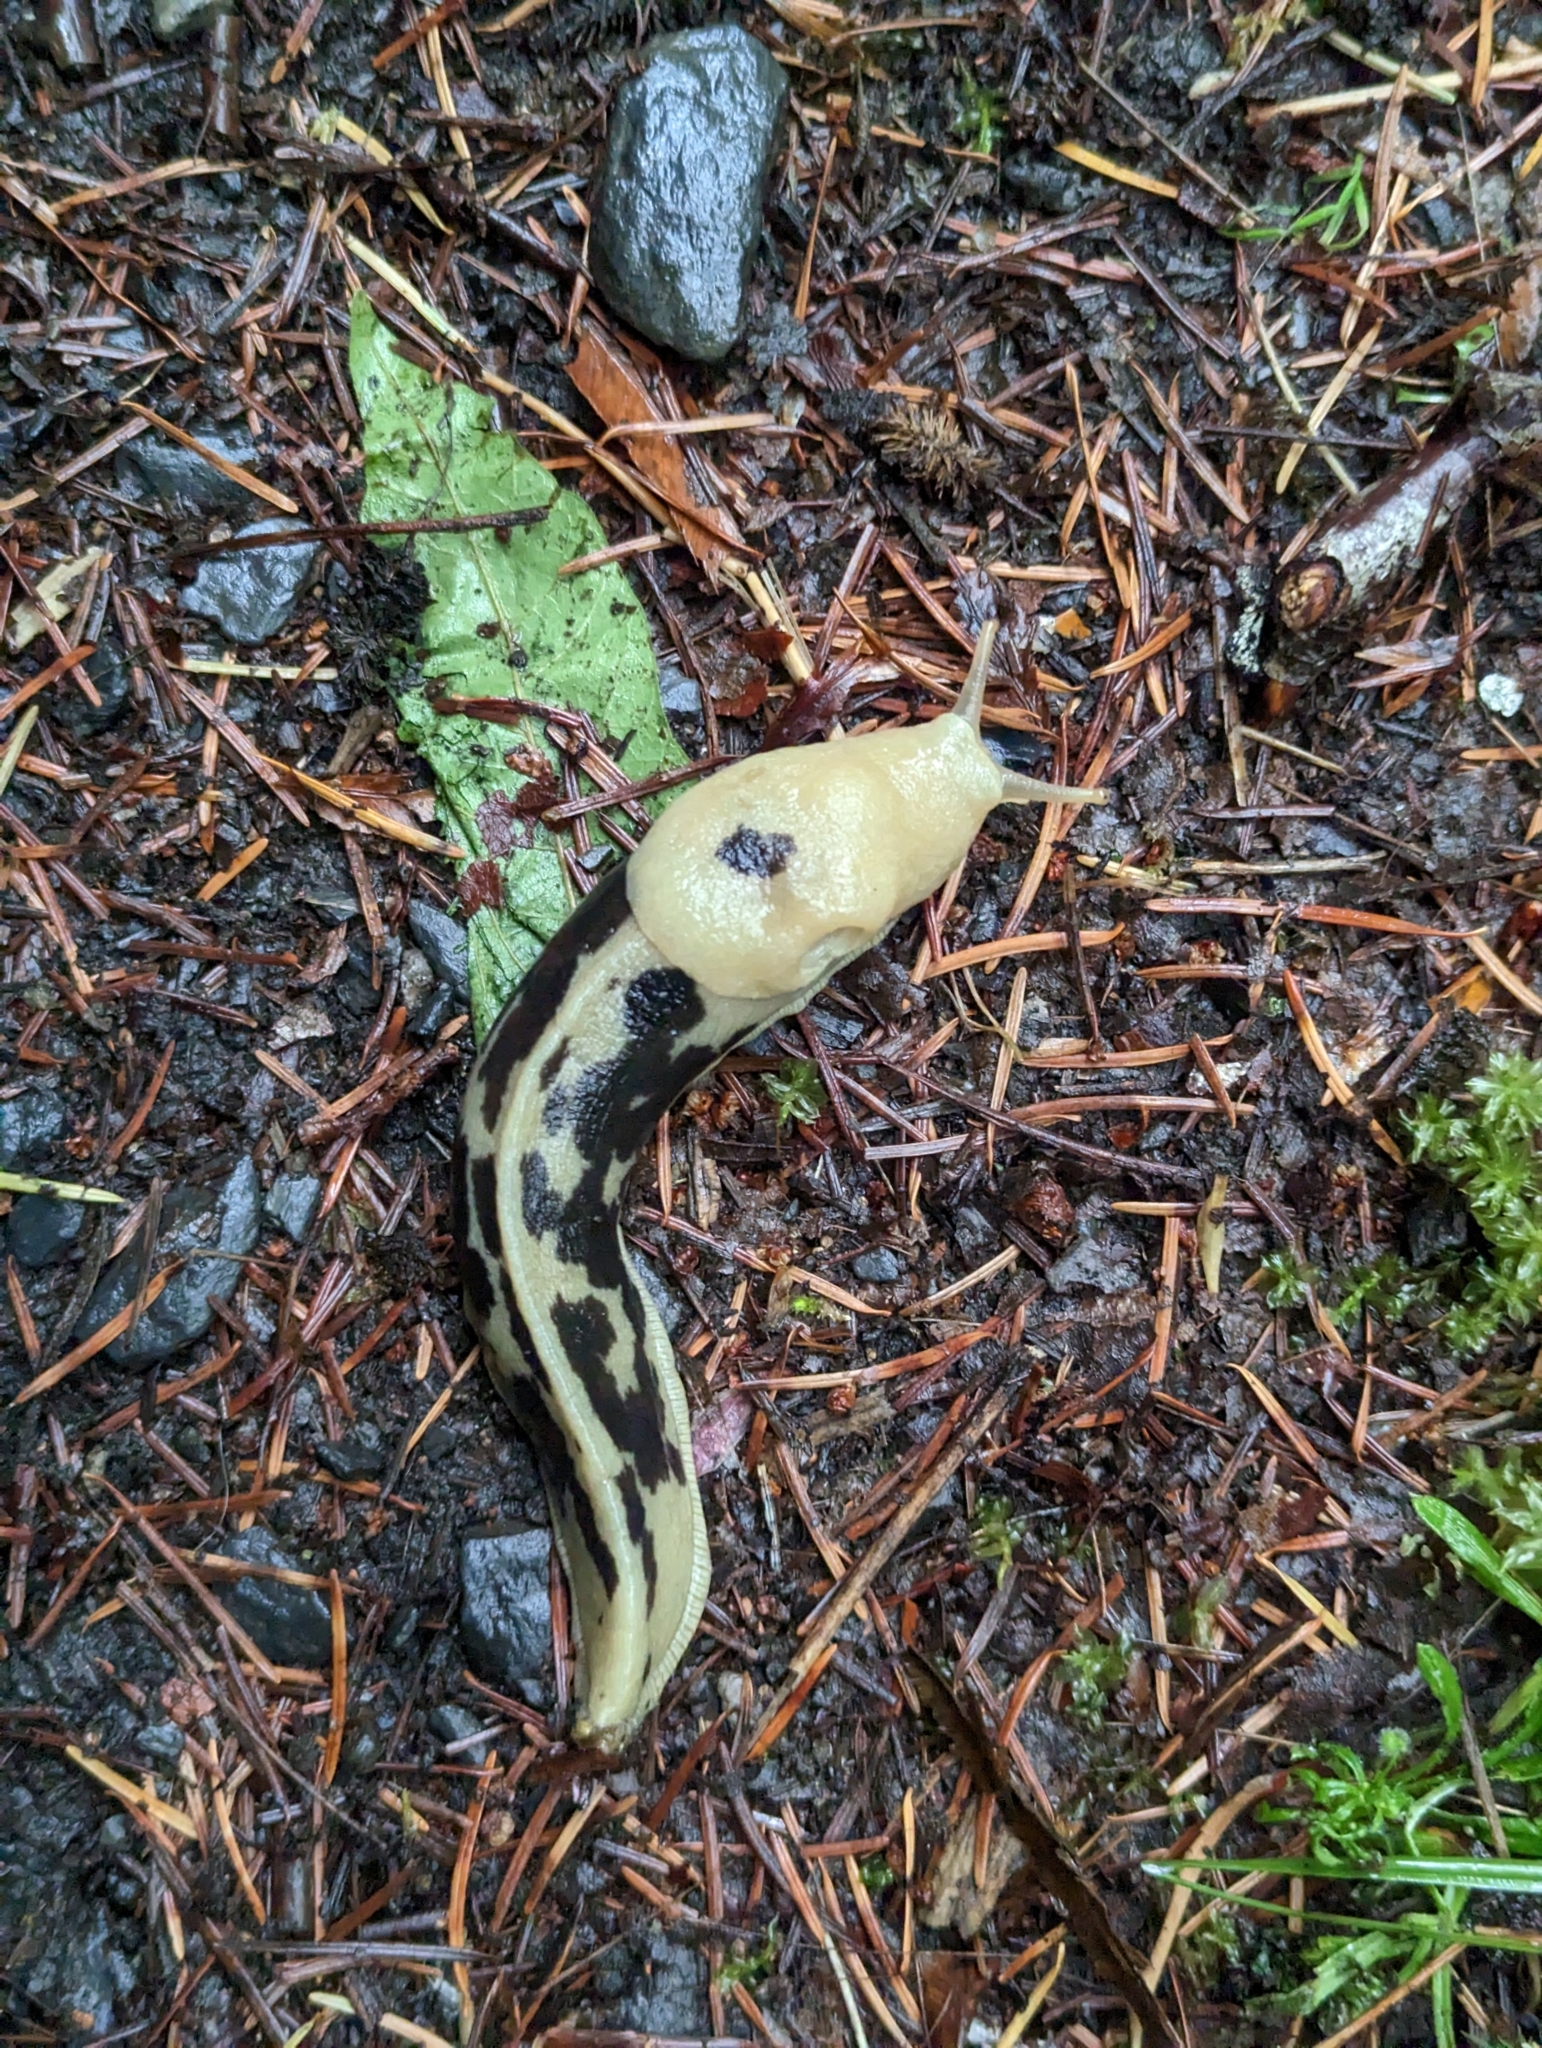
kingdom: Animalia
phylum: Mollusca
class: Gastropoda
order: Stylommatophora
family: Ariolimacidae
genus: Ariolimax
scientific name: Ariolimax columbianus
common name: Pacific banana slug
